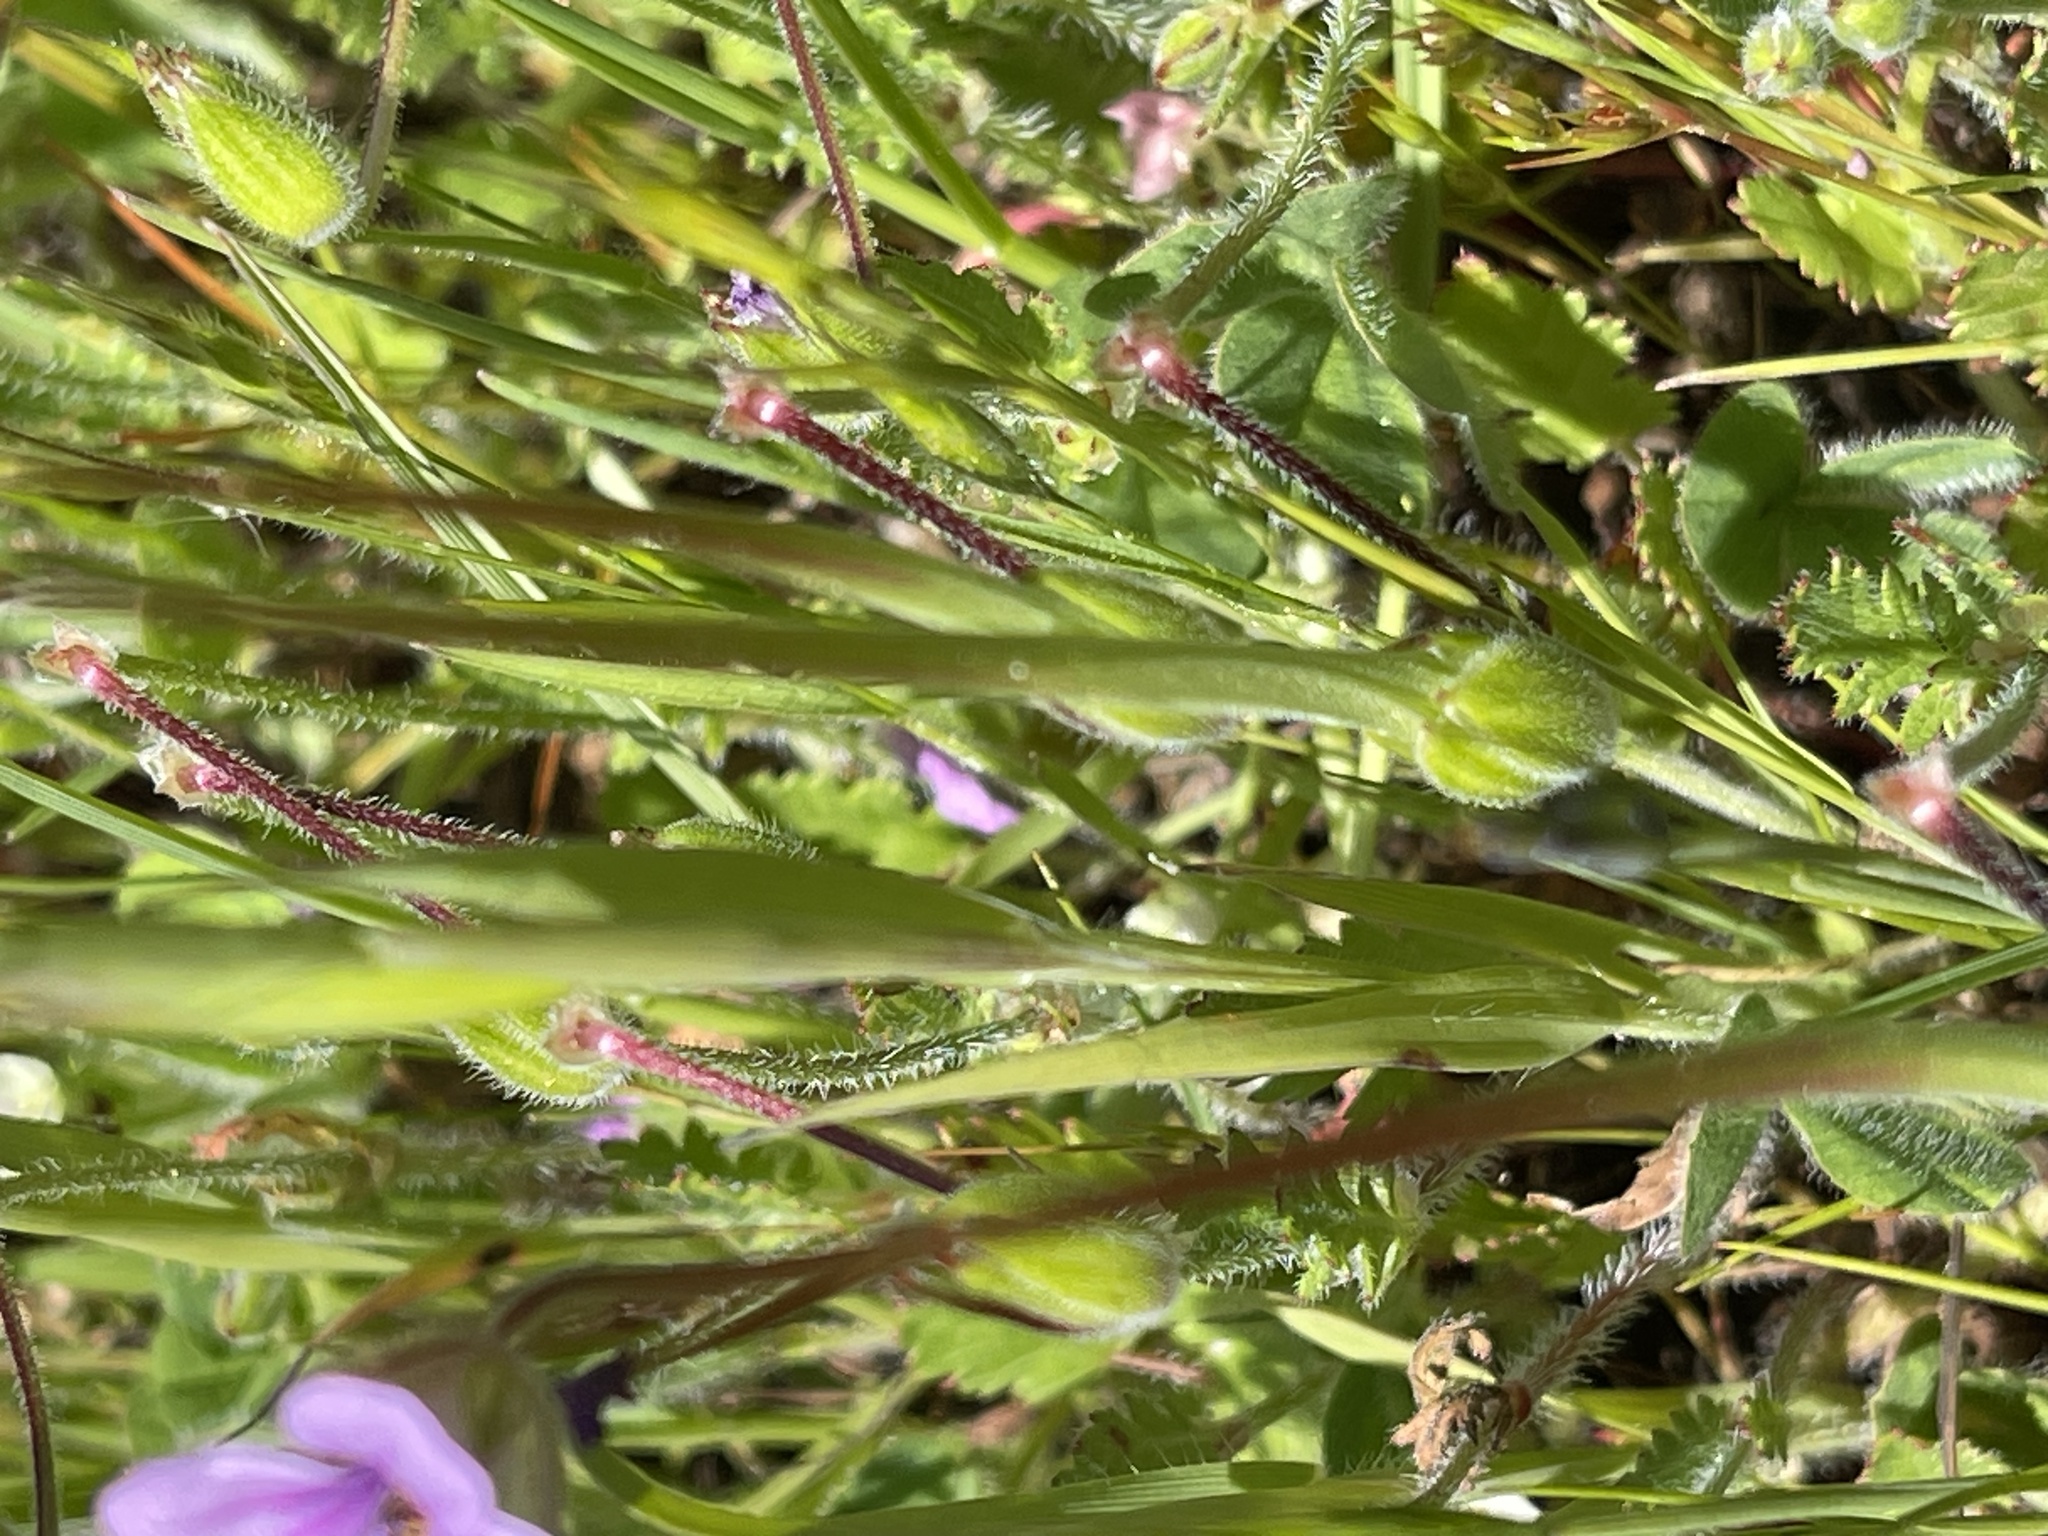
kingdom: Plantae
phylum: Tracheophyta
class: Magnoliopsida
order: Geraniales
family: Geraniaceae
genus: Erodium
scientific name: Erodium botrys
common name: Mediterranean stork's-bill
